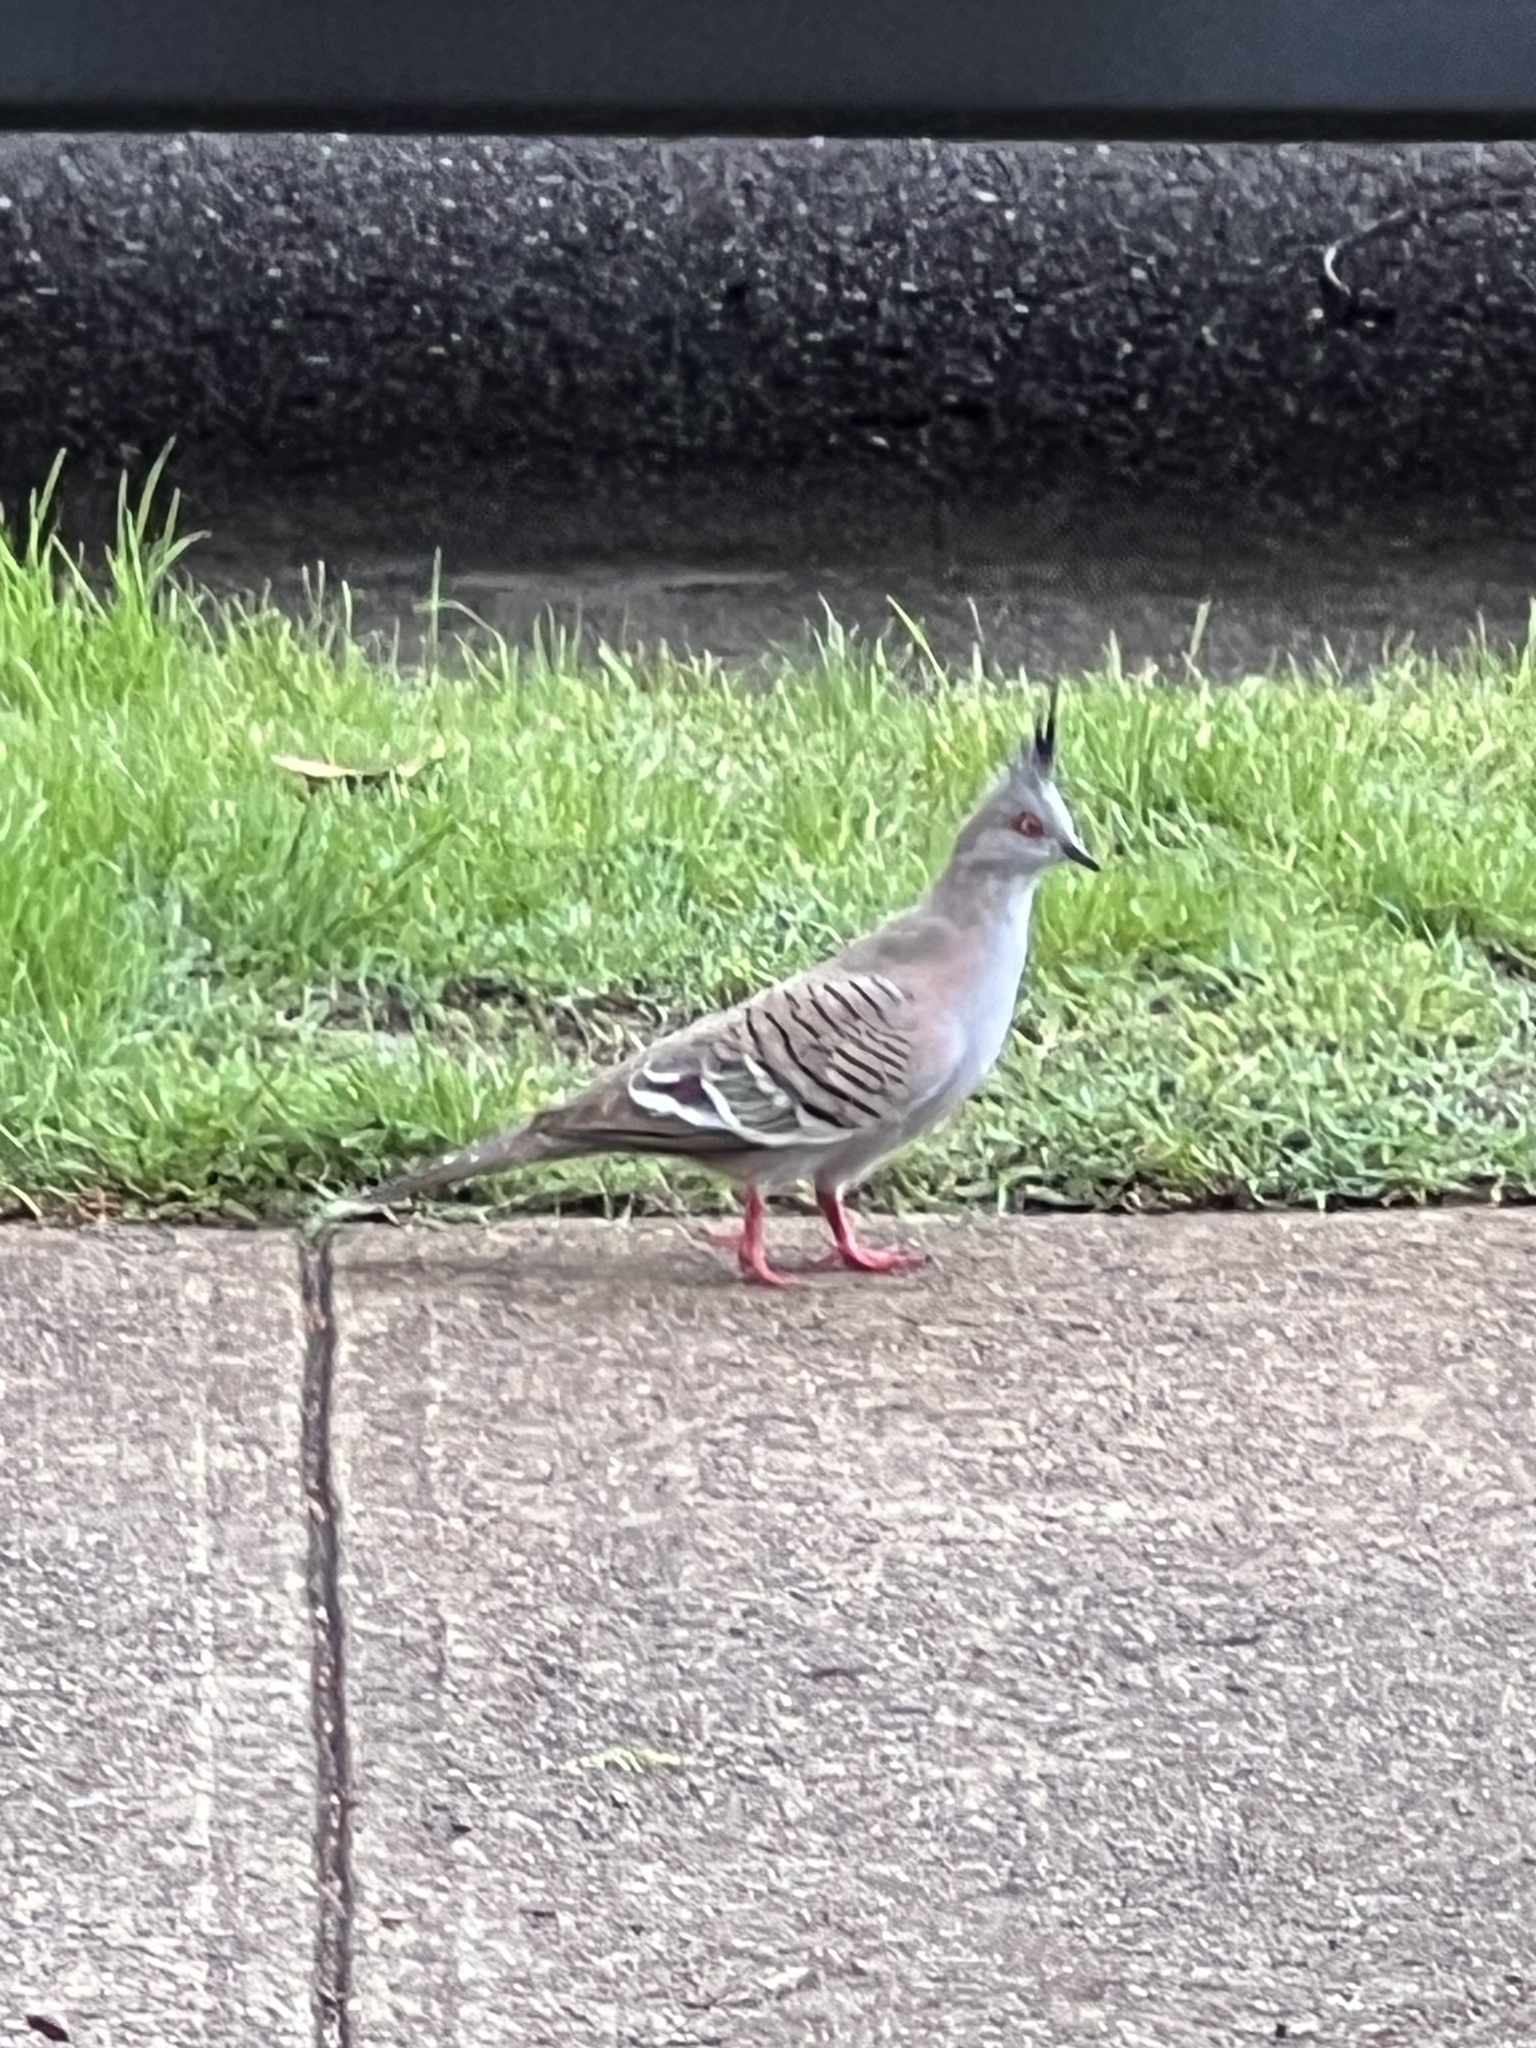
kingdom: Animalia
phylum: Chordata
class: Aves
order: Columbiformes
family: Columbidae
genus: Ocyphaps
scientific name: Ocyphaps lophotes
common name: Crested pigeon
